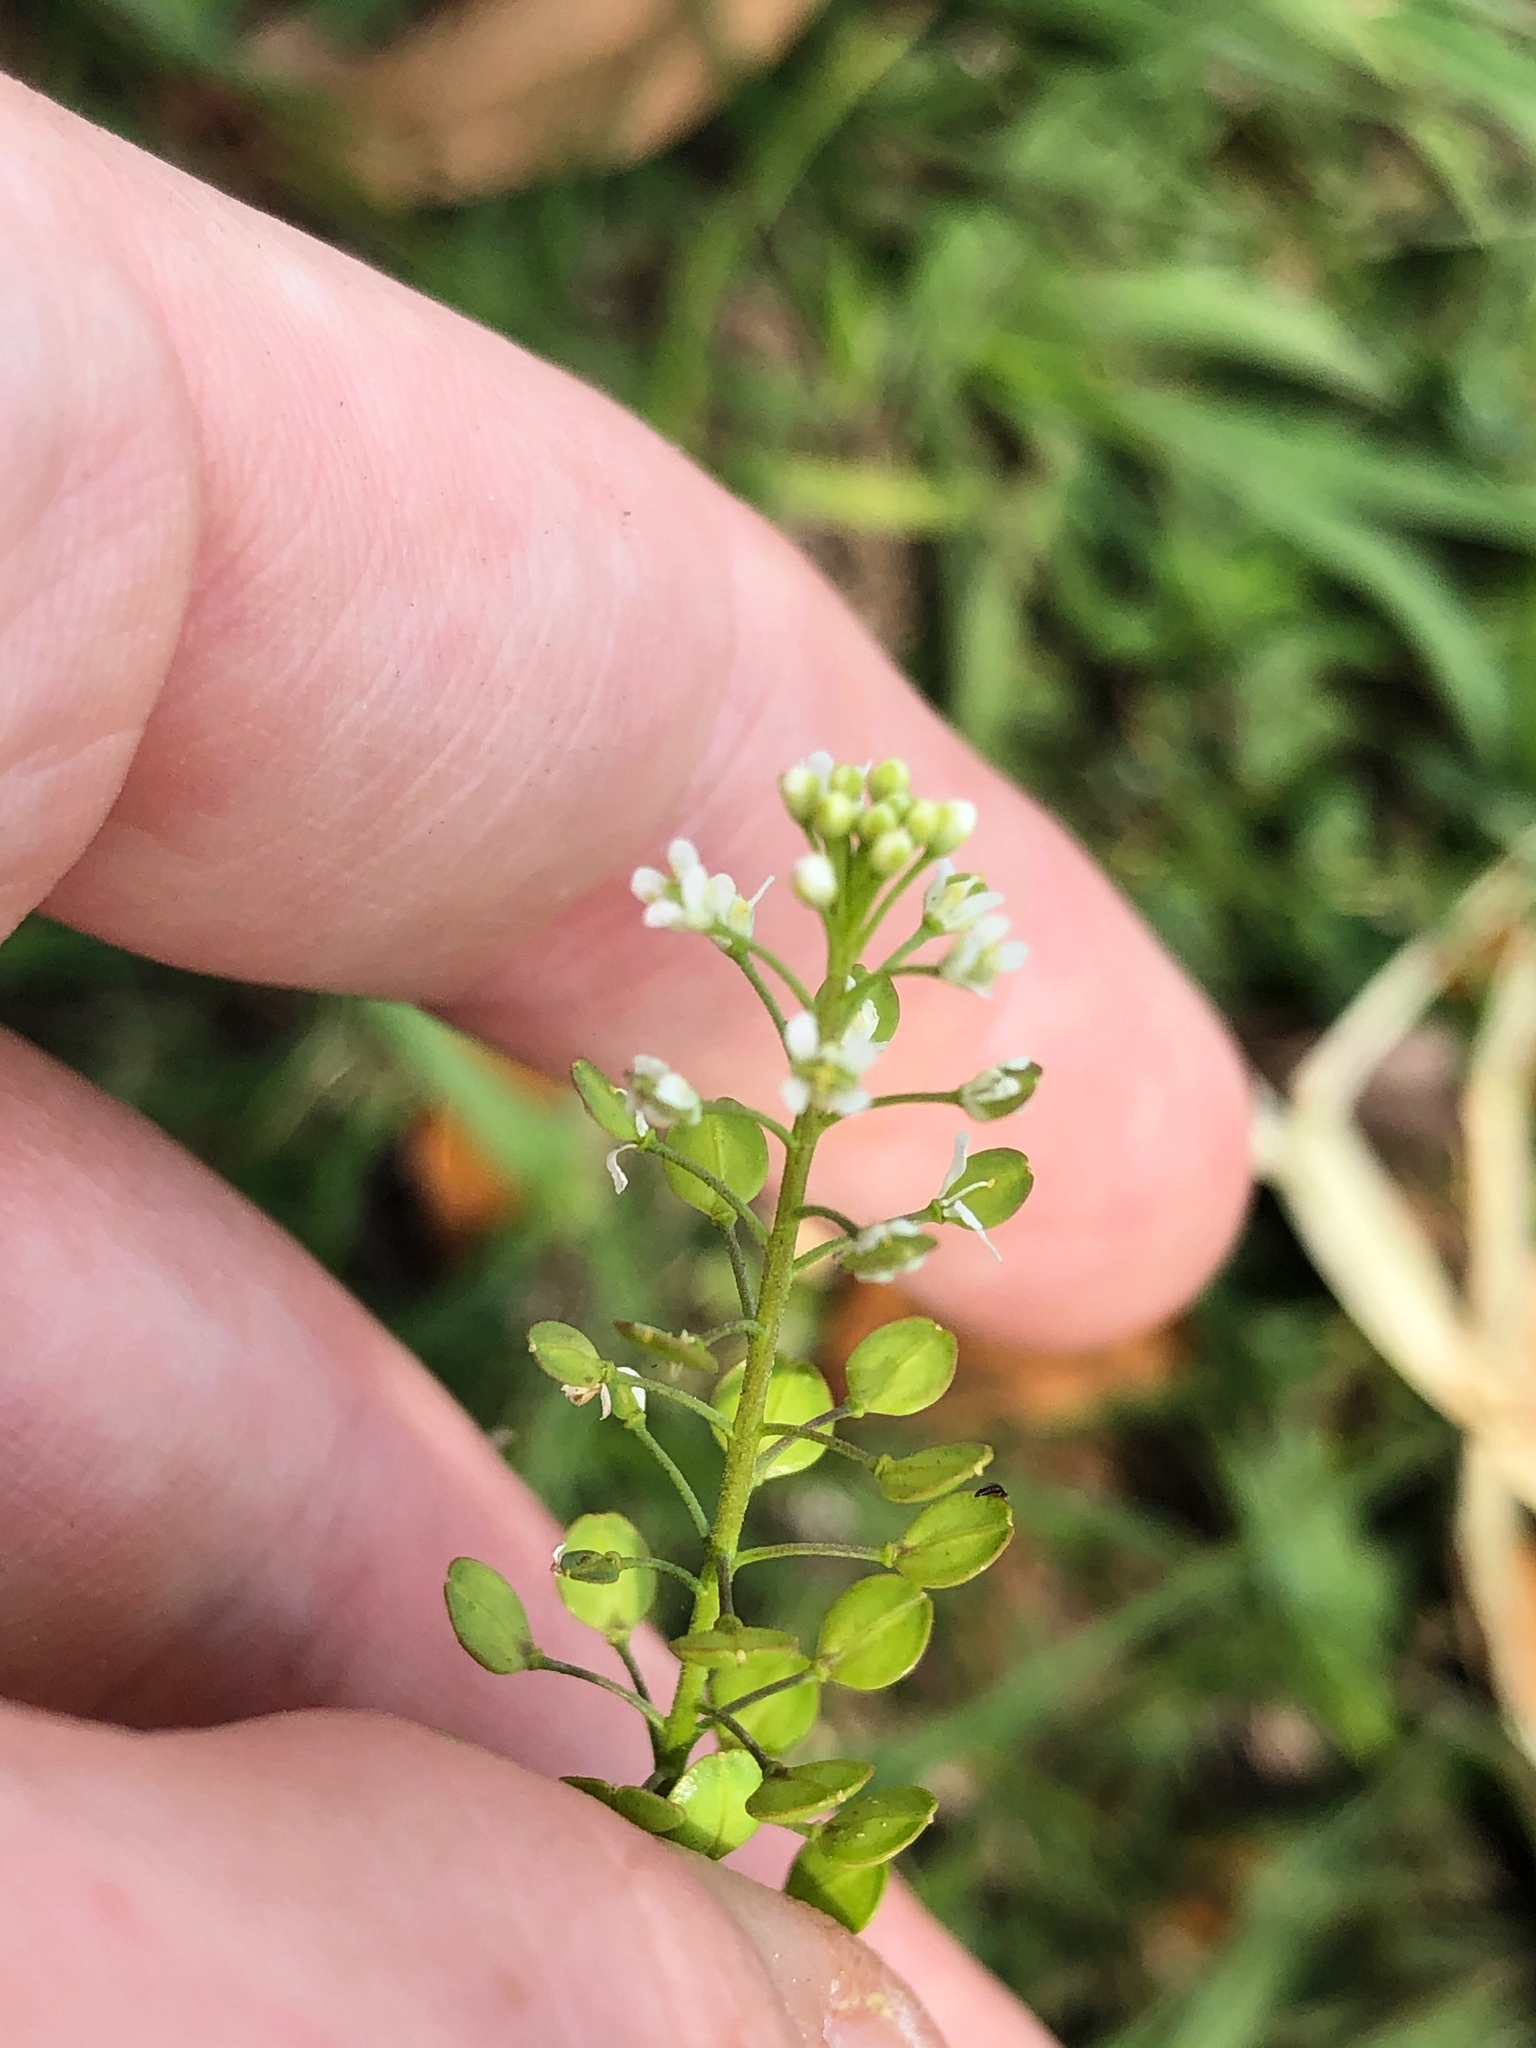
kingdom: Plantae
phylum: Tracheophyta
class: Magnoliopsida
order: Brassicales
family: Brassicaceae
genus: Lepidium
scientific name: Lepidium virginicum
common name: Least pepperwort
